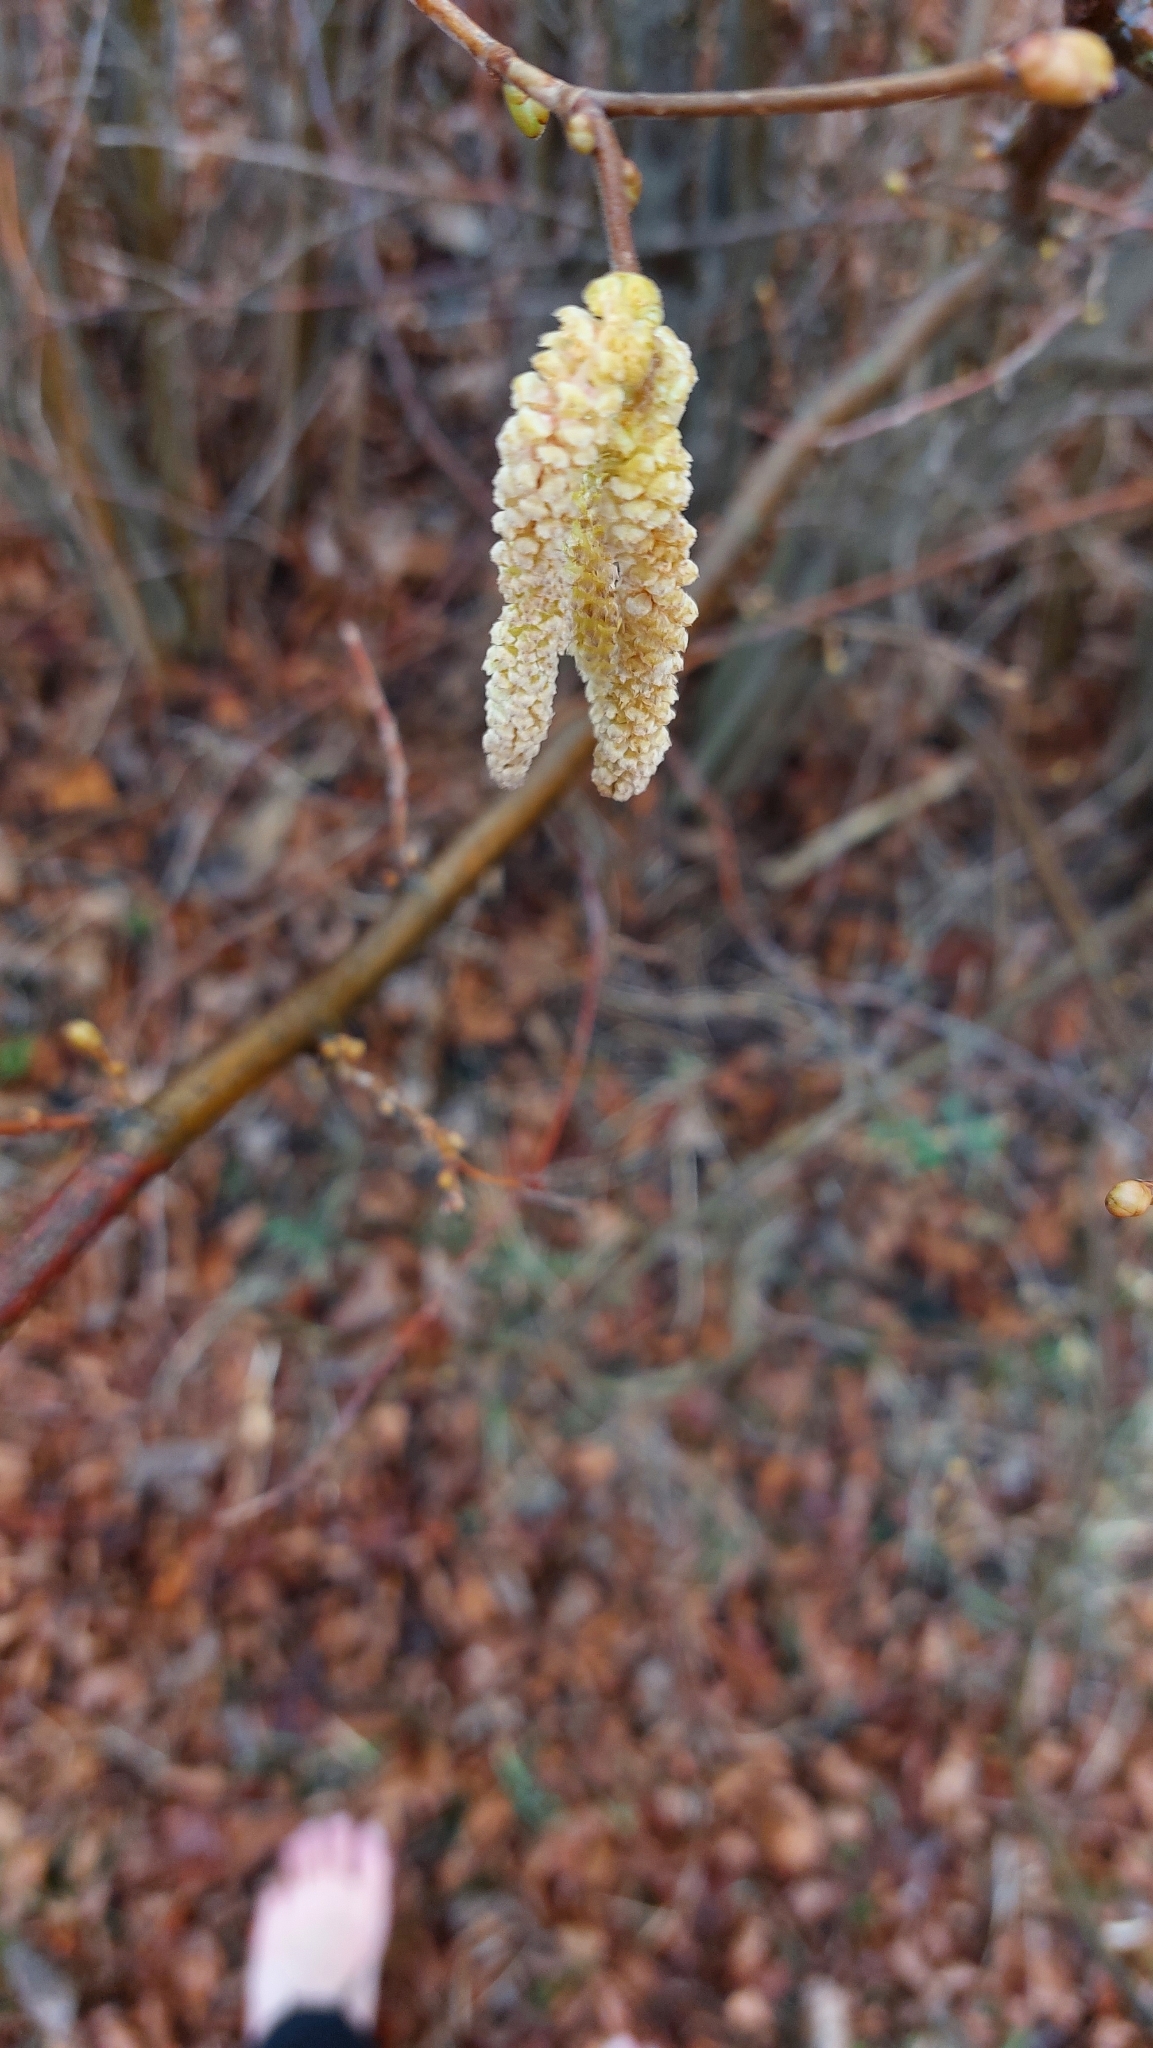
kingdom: Plantae
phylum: Tracheophyta
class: Magnoliopsida
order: Fagales
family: Betulaceae
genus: Corylus
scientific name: Corylus avellana
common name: European hazel
